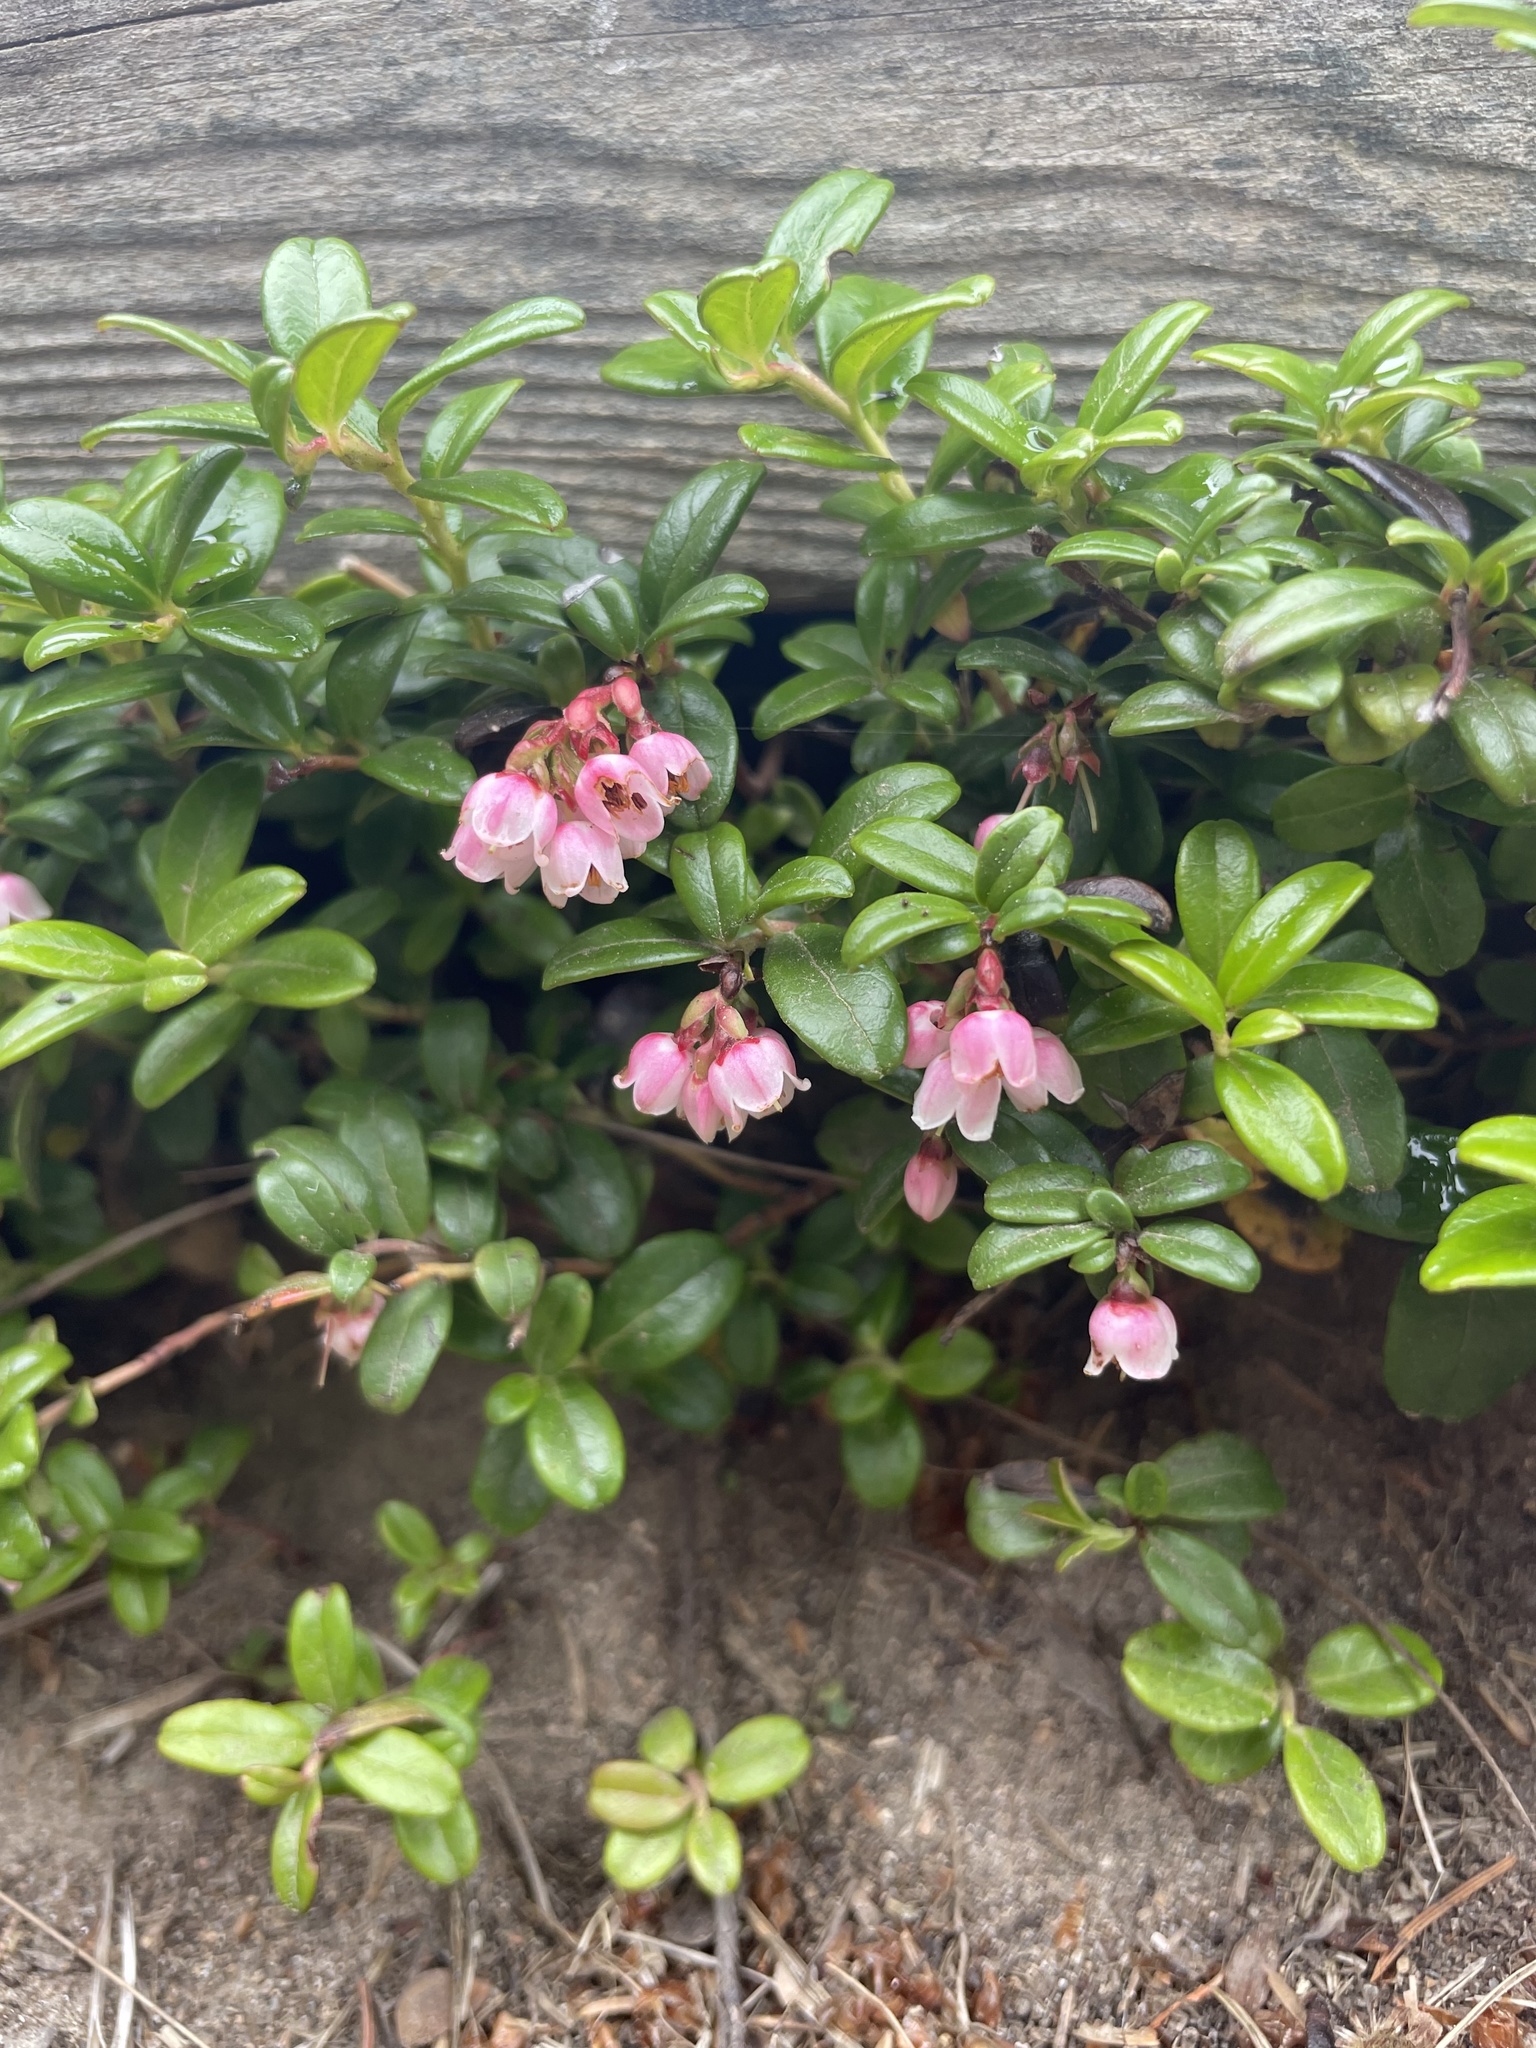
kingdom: Plantae
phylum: Tracheophyta
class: Magnoliopsida
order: Ericales
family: Ericaceae
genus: Vaccinium
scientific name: Vaccinium vitis-idaea
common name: Cowberry
